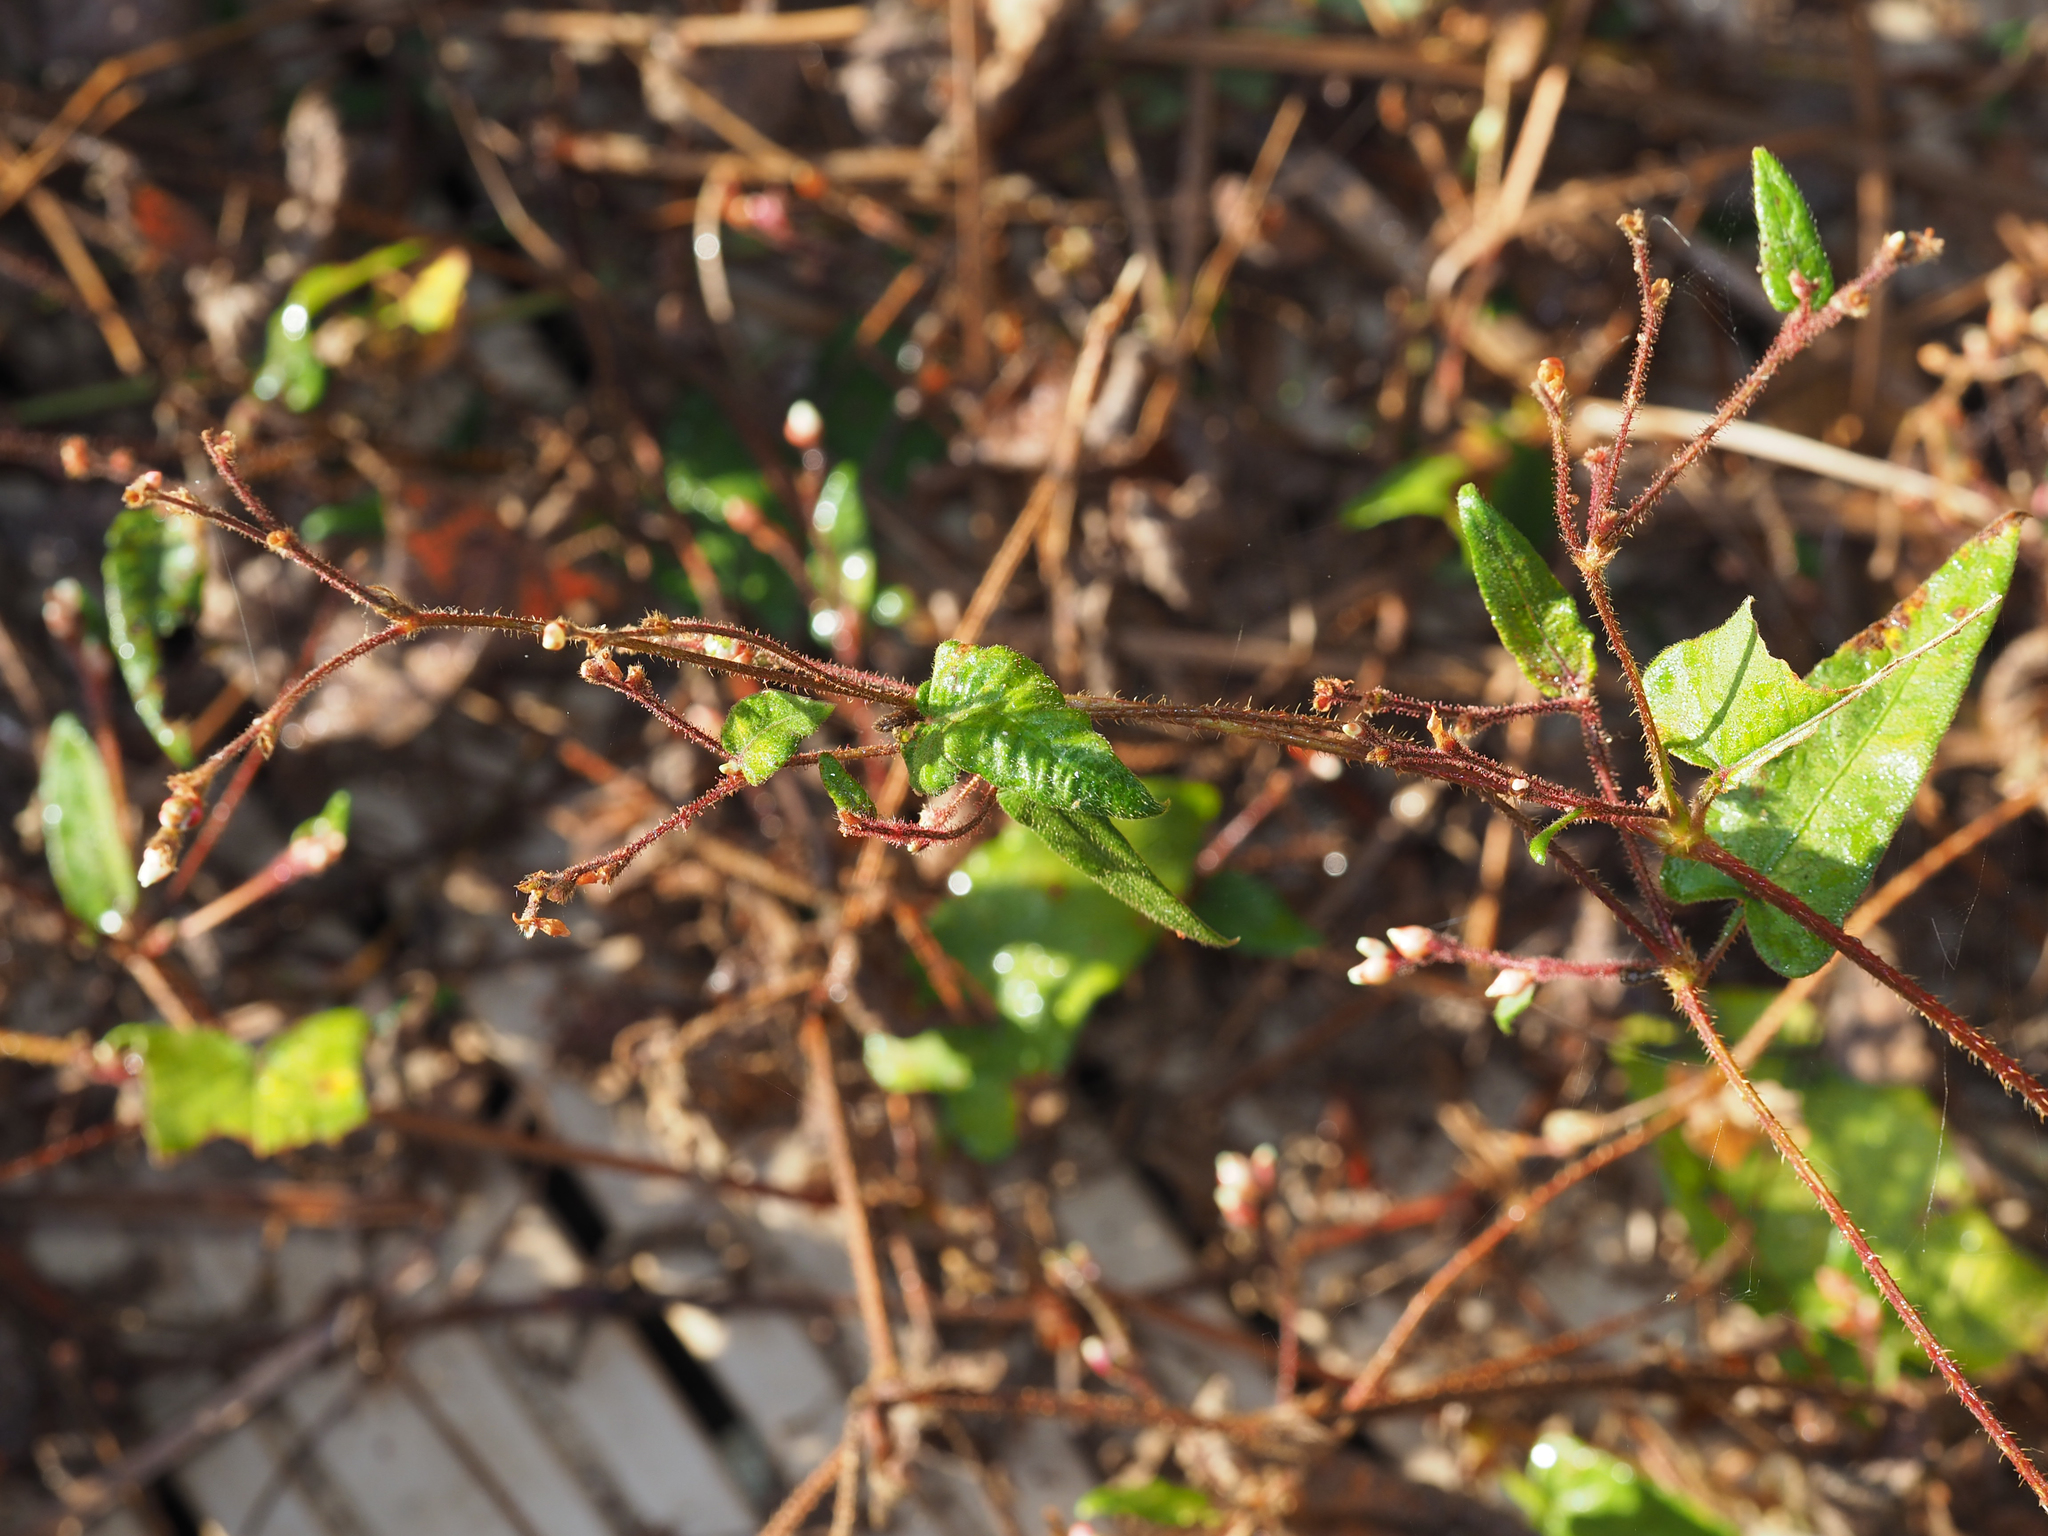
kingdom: Plantae
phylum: Tracheophyta
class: Magnoliopsida
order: Caryophyllales
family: Polygonaceae
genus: Persicaria
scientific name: Persicaria arifolia
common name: Halberd-leaved tear-thumb
